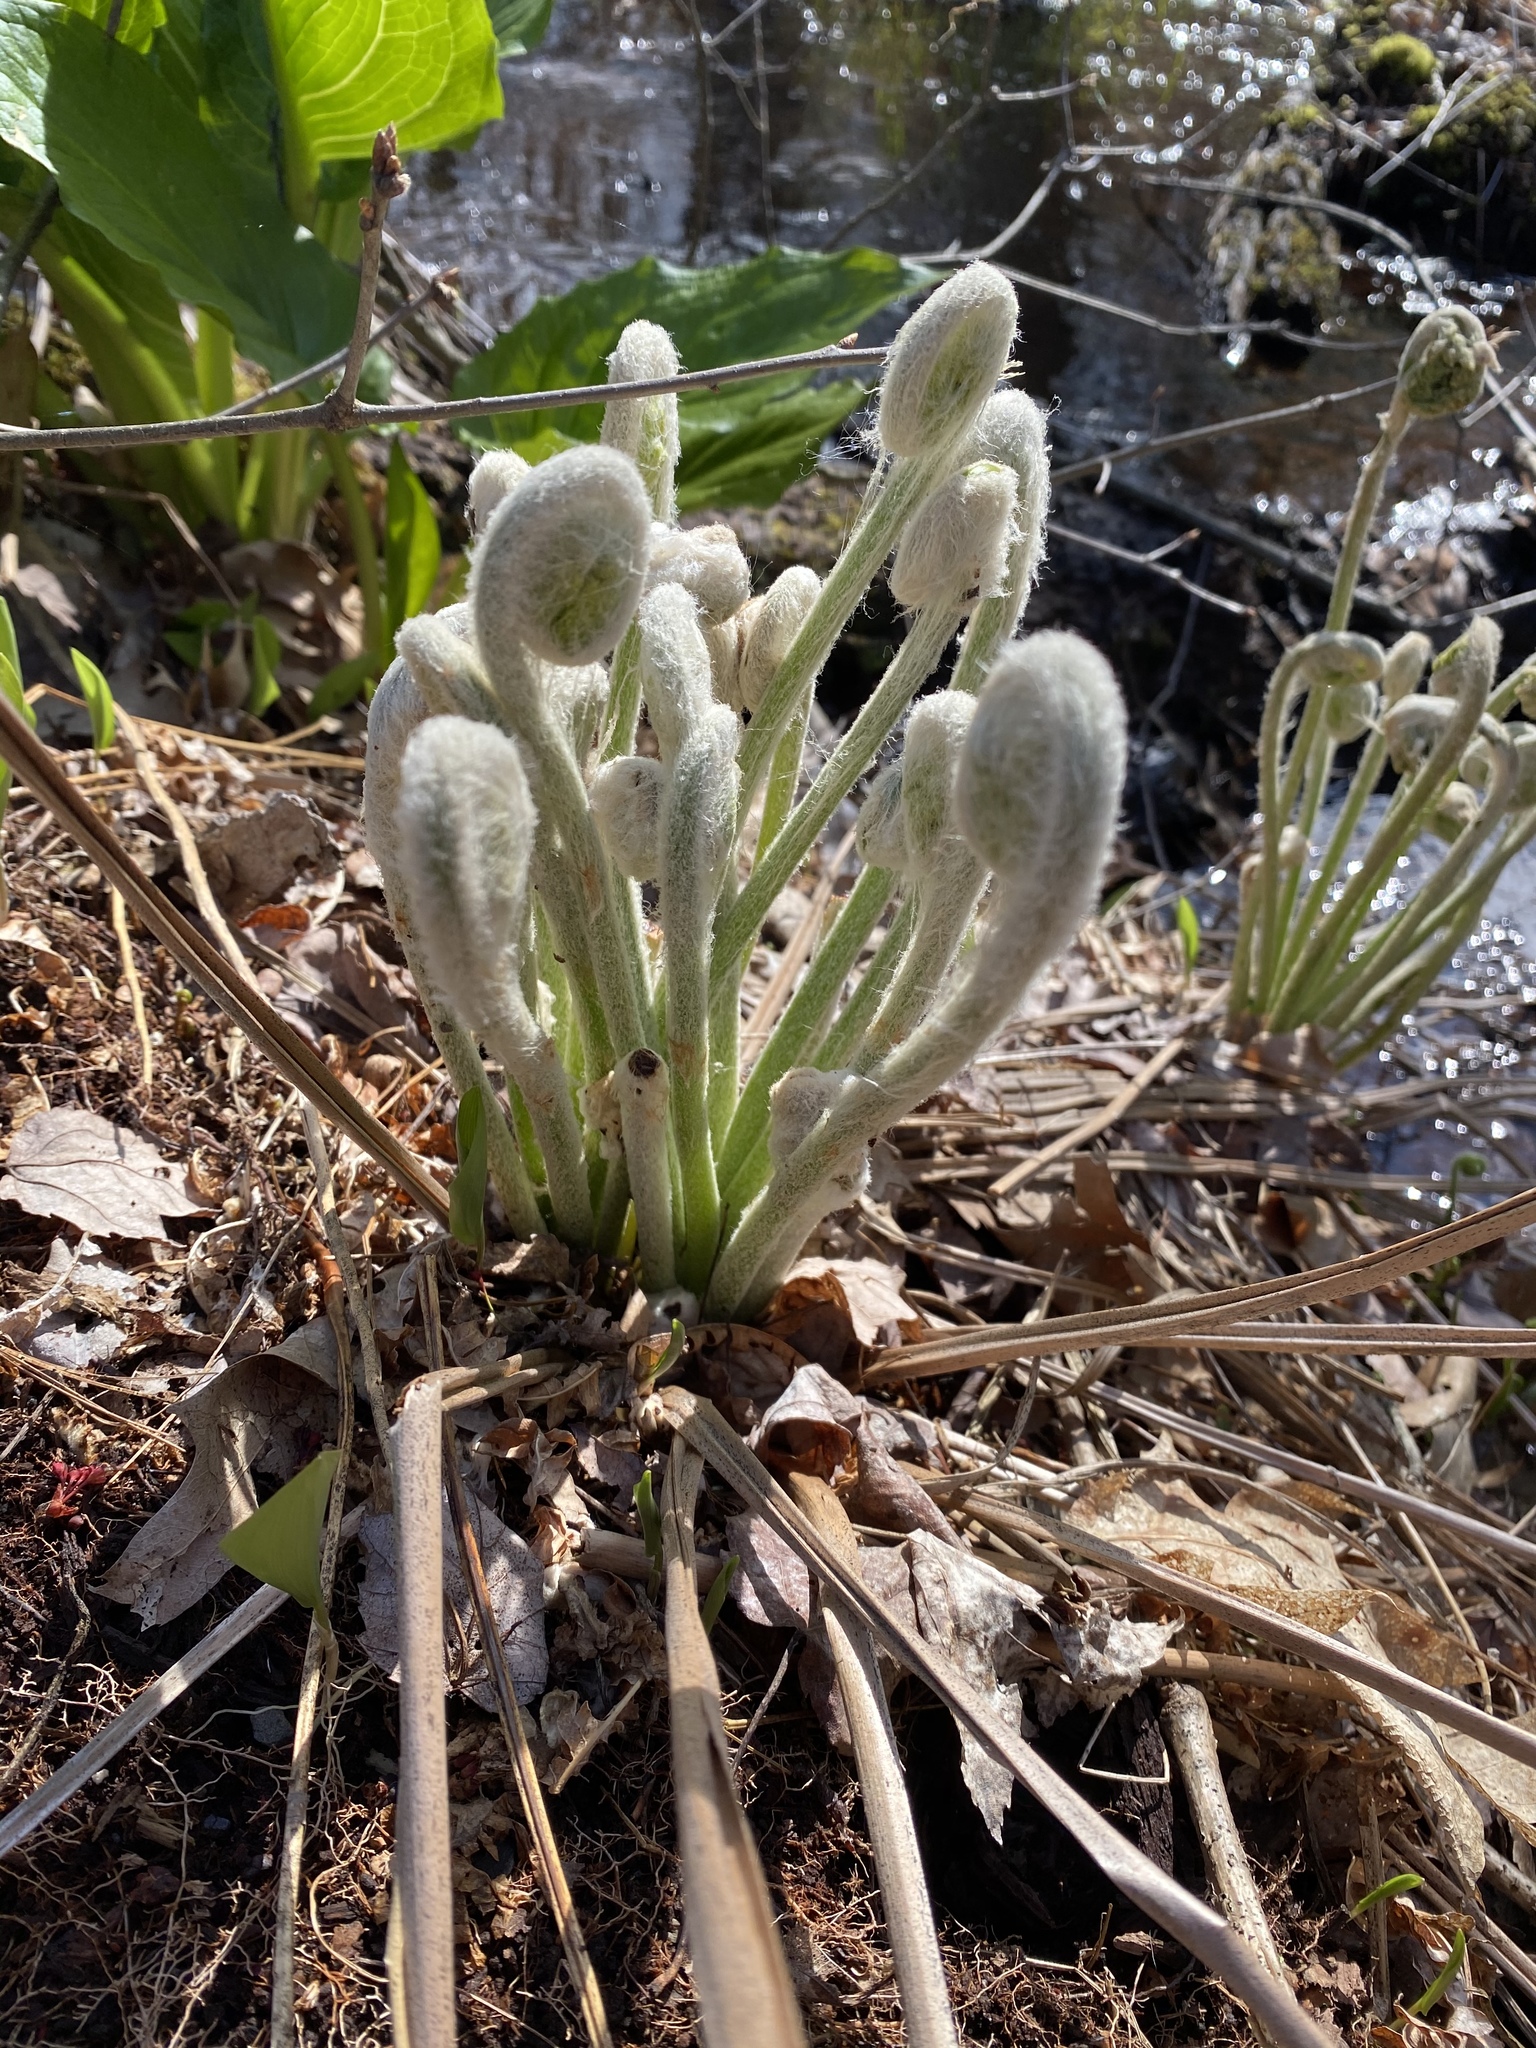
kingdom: Plantae
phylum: Tracheophyta
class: Polypodiopsida
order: Osmundales
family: Osmundaceae
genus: Osmundastrum
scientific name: Osmundastrum cinnamomeum
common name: Cinnamon fern
